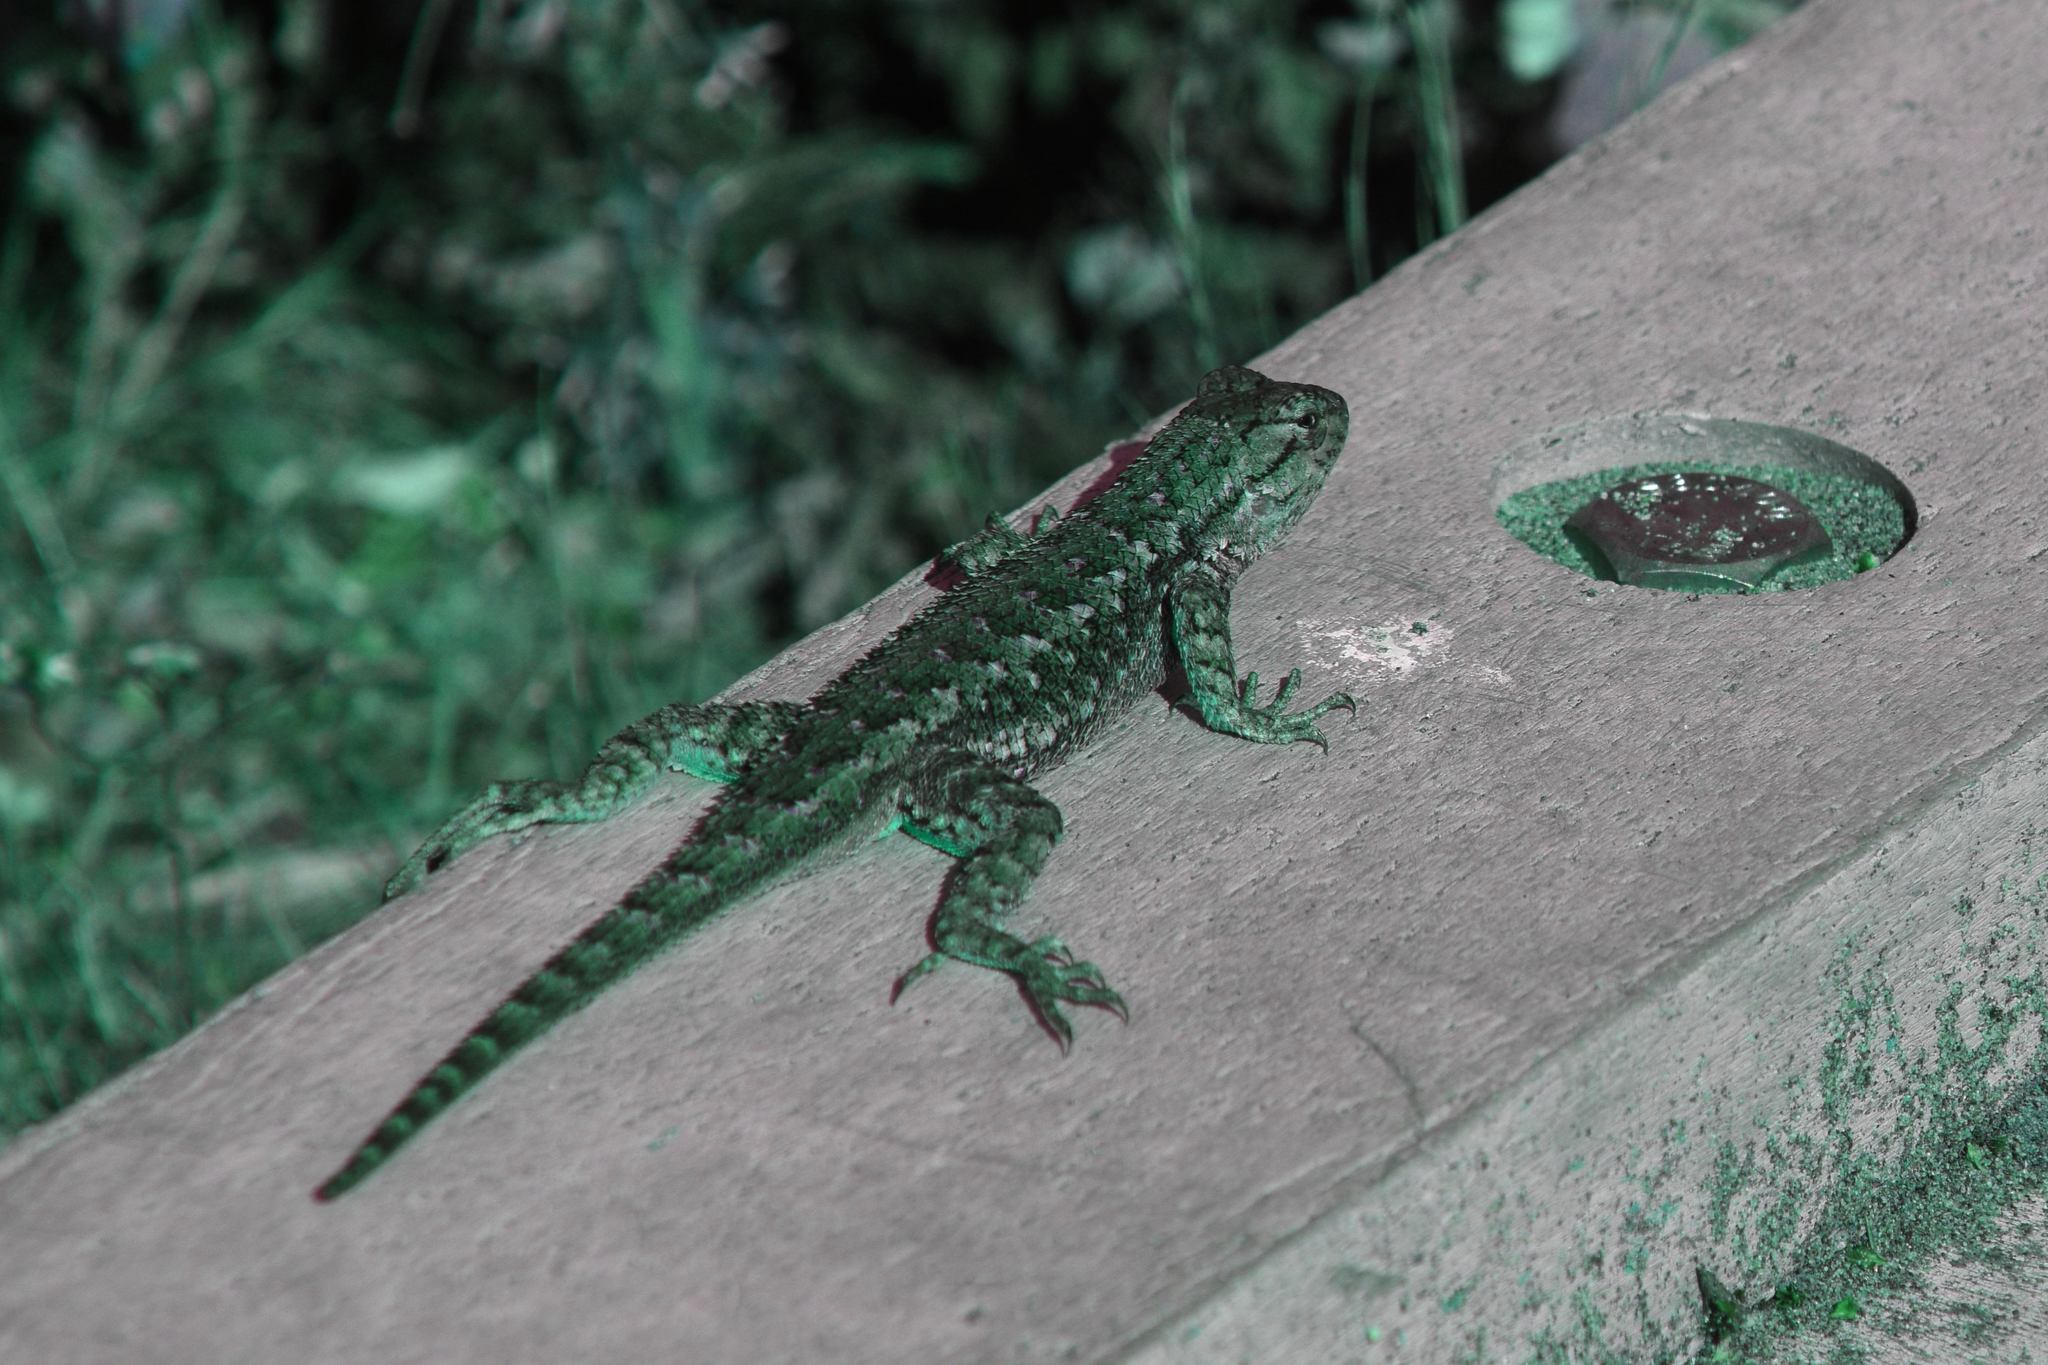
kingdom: Animalia
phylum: Chordata
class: Squamata
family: Phrynosomatidae
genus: Sceloporus
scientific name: Sceloporus occidentalis
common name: Western fence lizard
